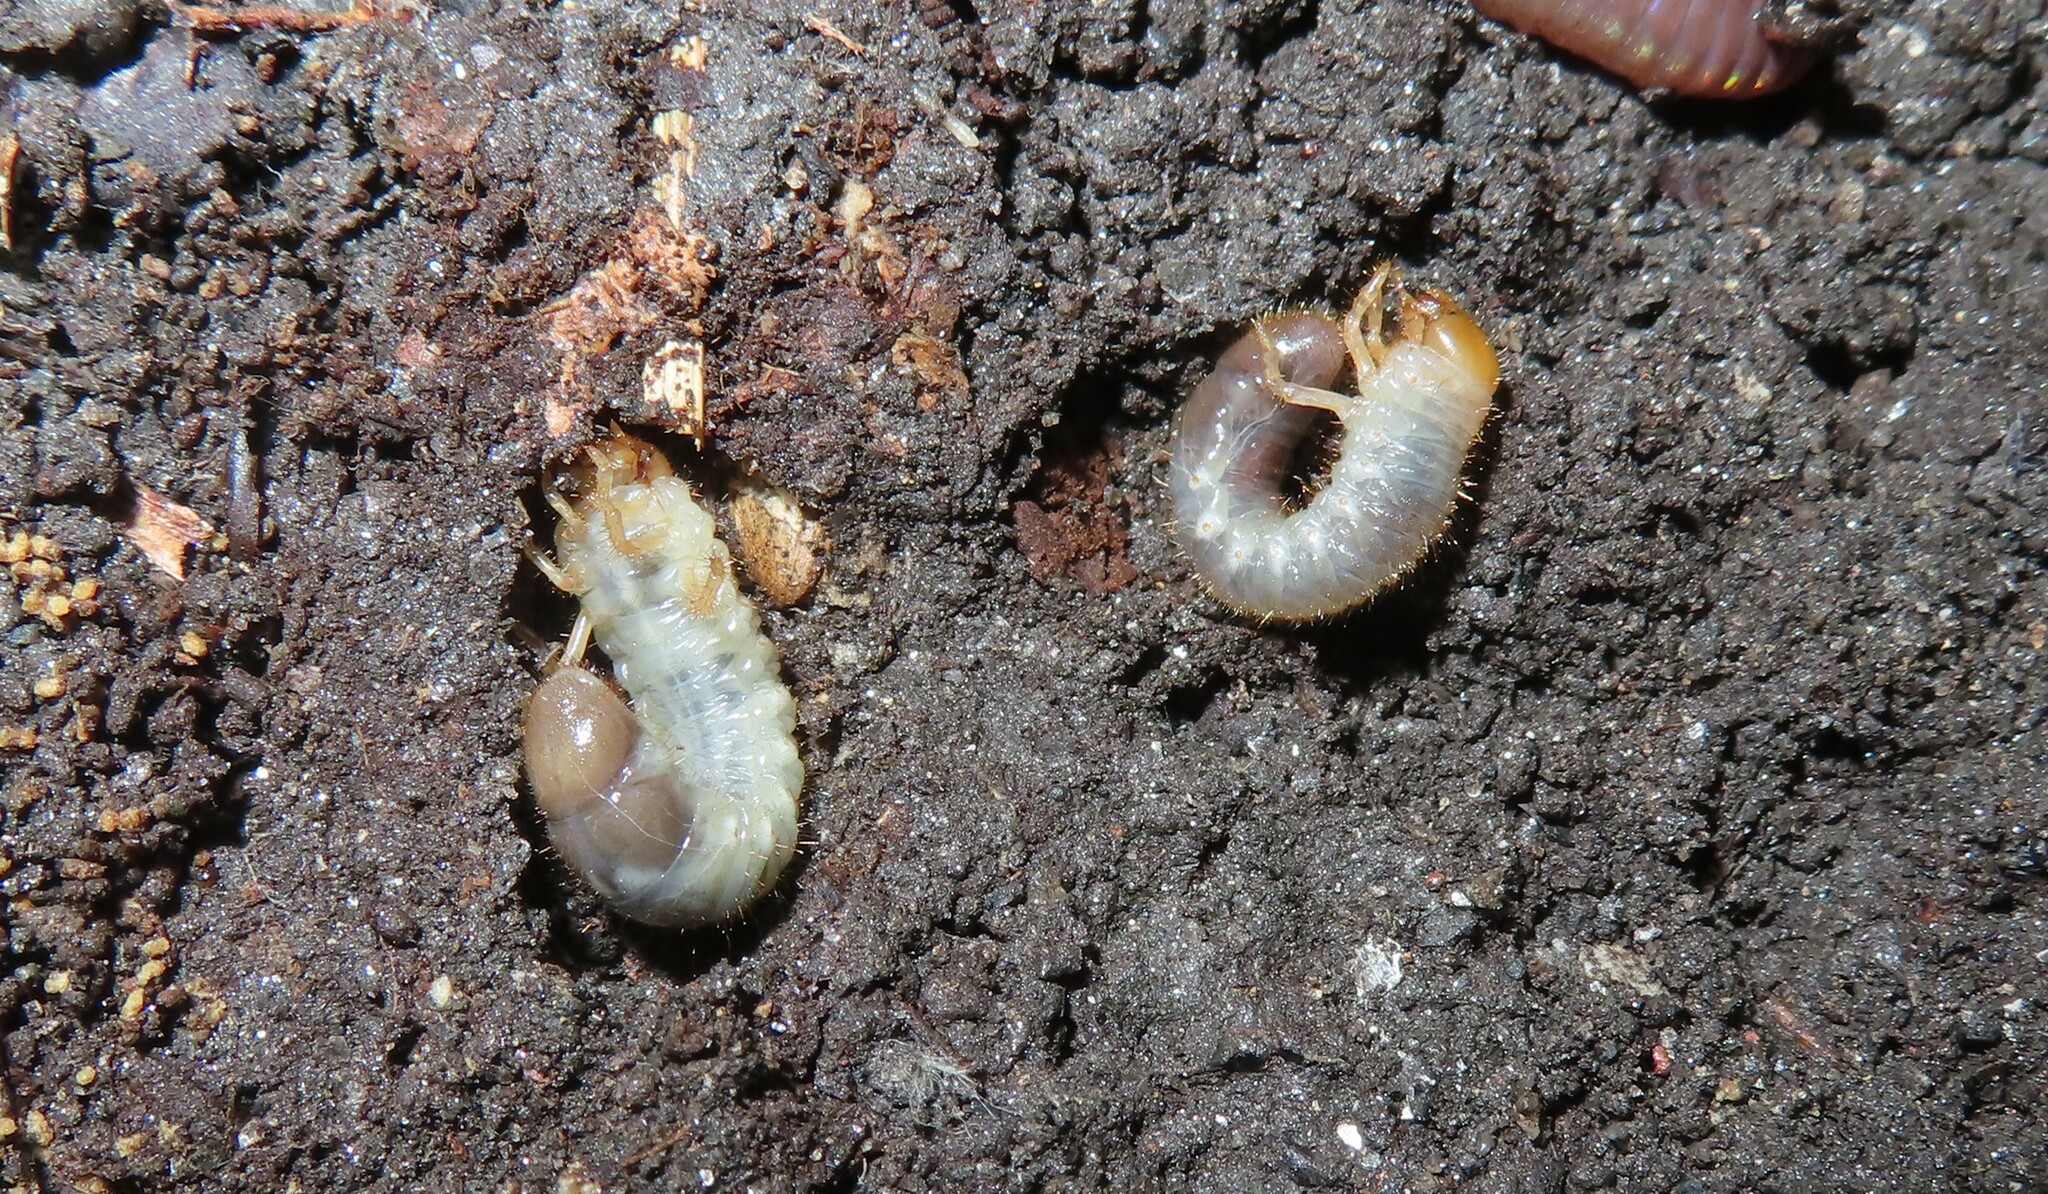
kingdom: Animalia
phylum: Arthropoda
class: Insecta
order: Coleoptera
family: Scarabaeidae
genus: Popillia
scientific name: Popillia japonica
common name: Japanese beetle
